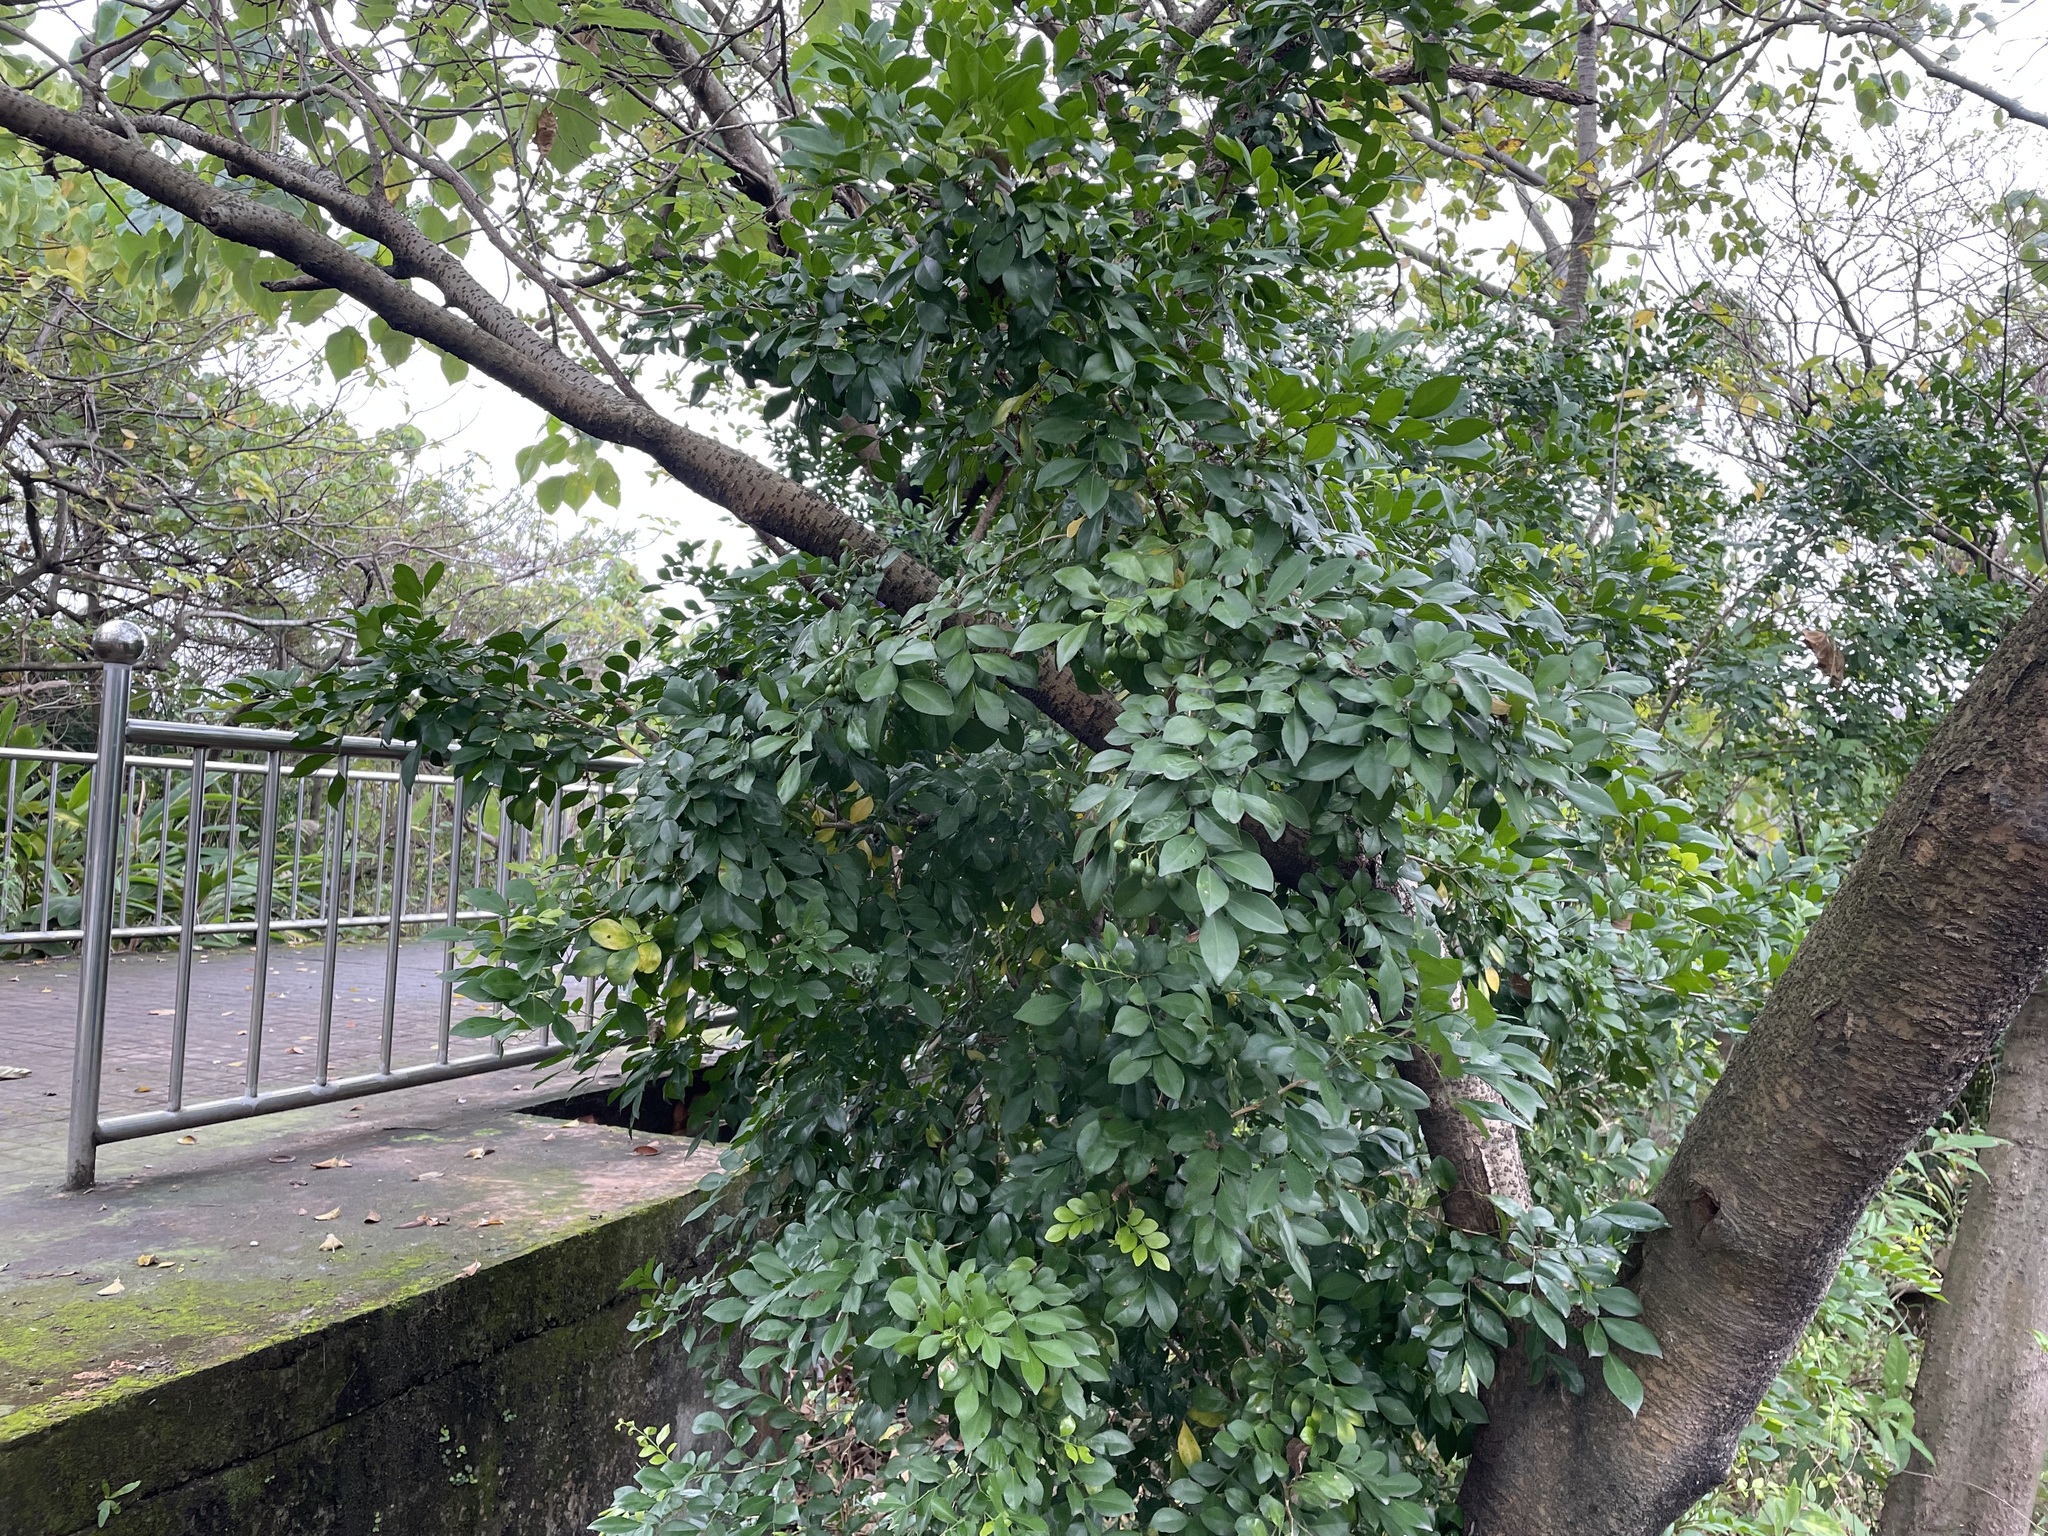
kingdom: Plantae
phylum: Tracheophyta
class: Magnoliopsida
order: Sapindales
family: Rutaceae
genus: Murraya
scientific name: Murraya paniculata
